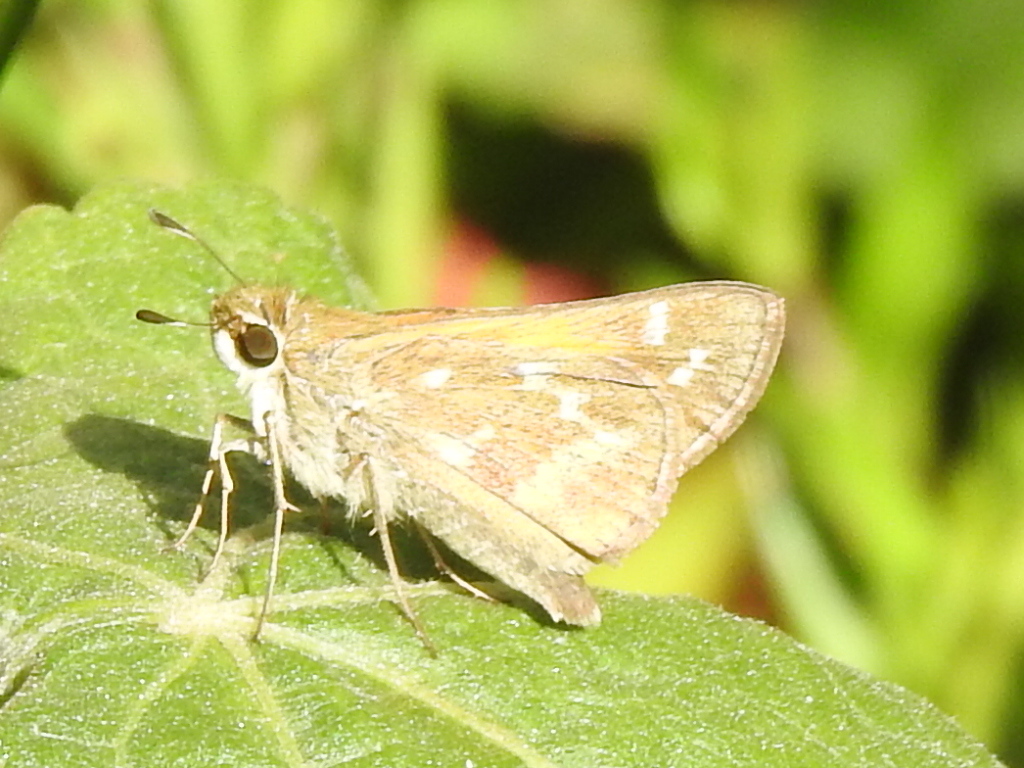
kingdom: Animalia
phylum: Arthropoda
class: Insecta
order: Lepidoptera
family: Hesperiidae
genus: Atalopedes
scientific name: Atalopedes
